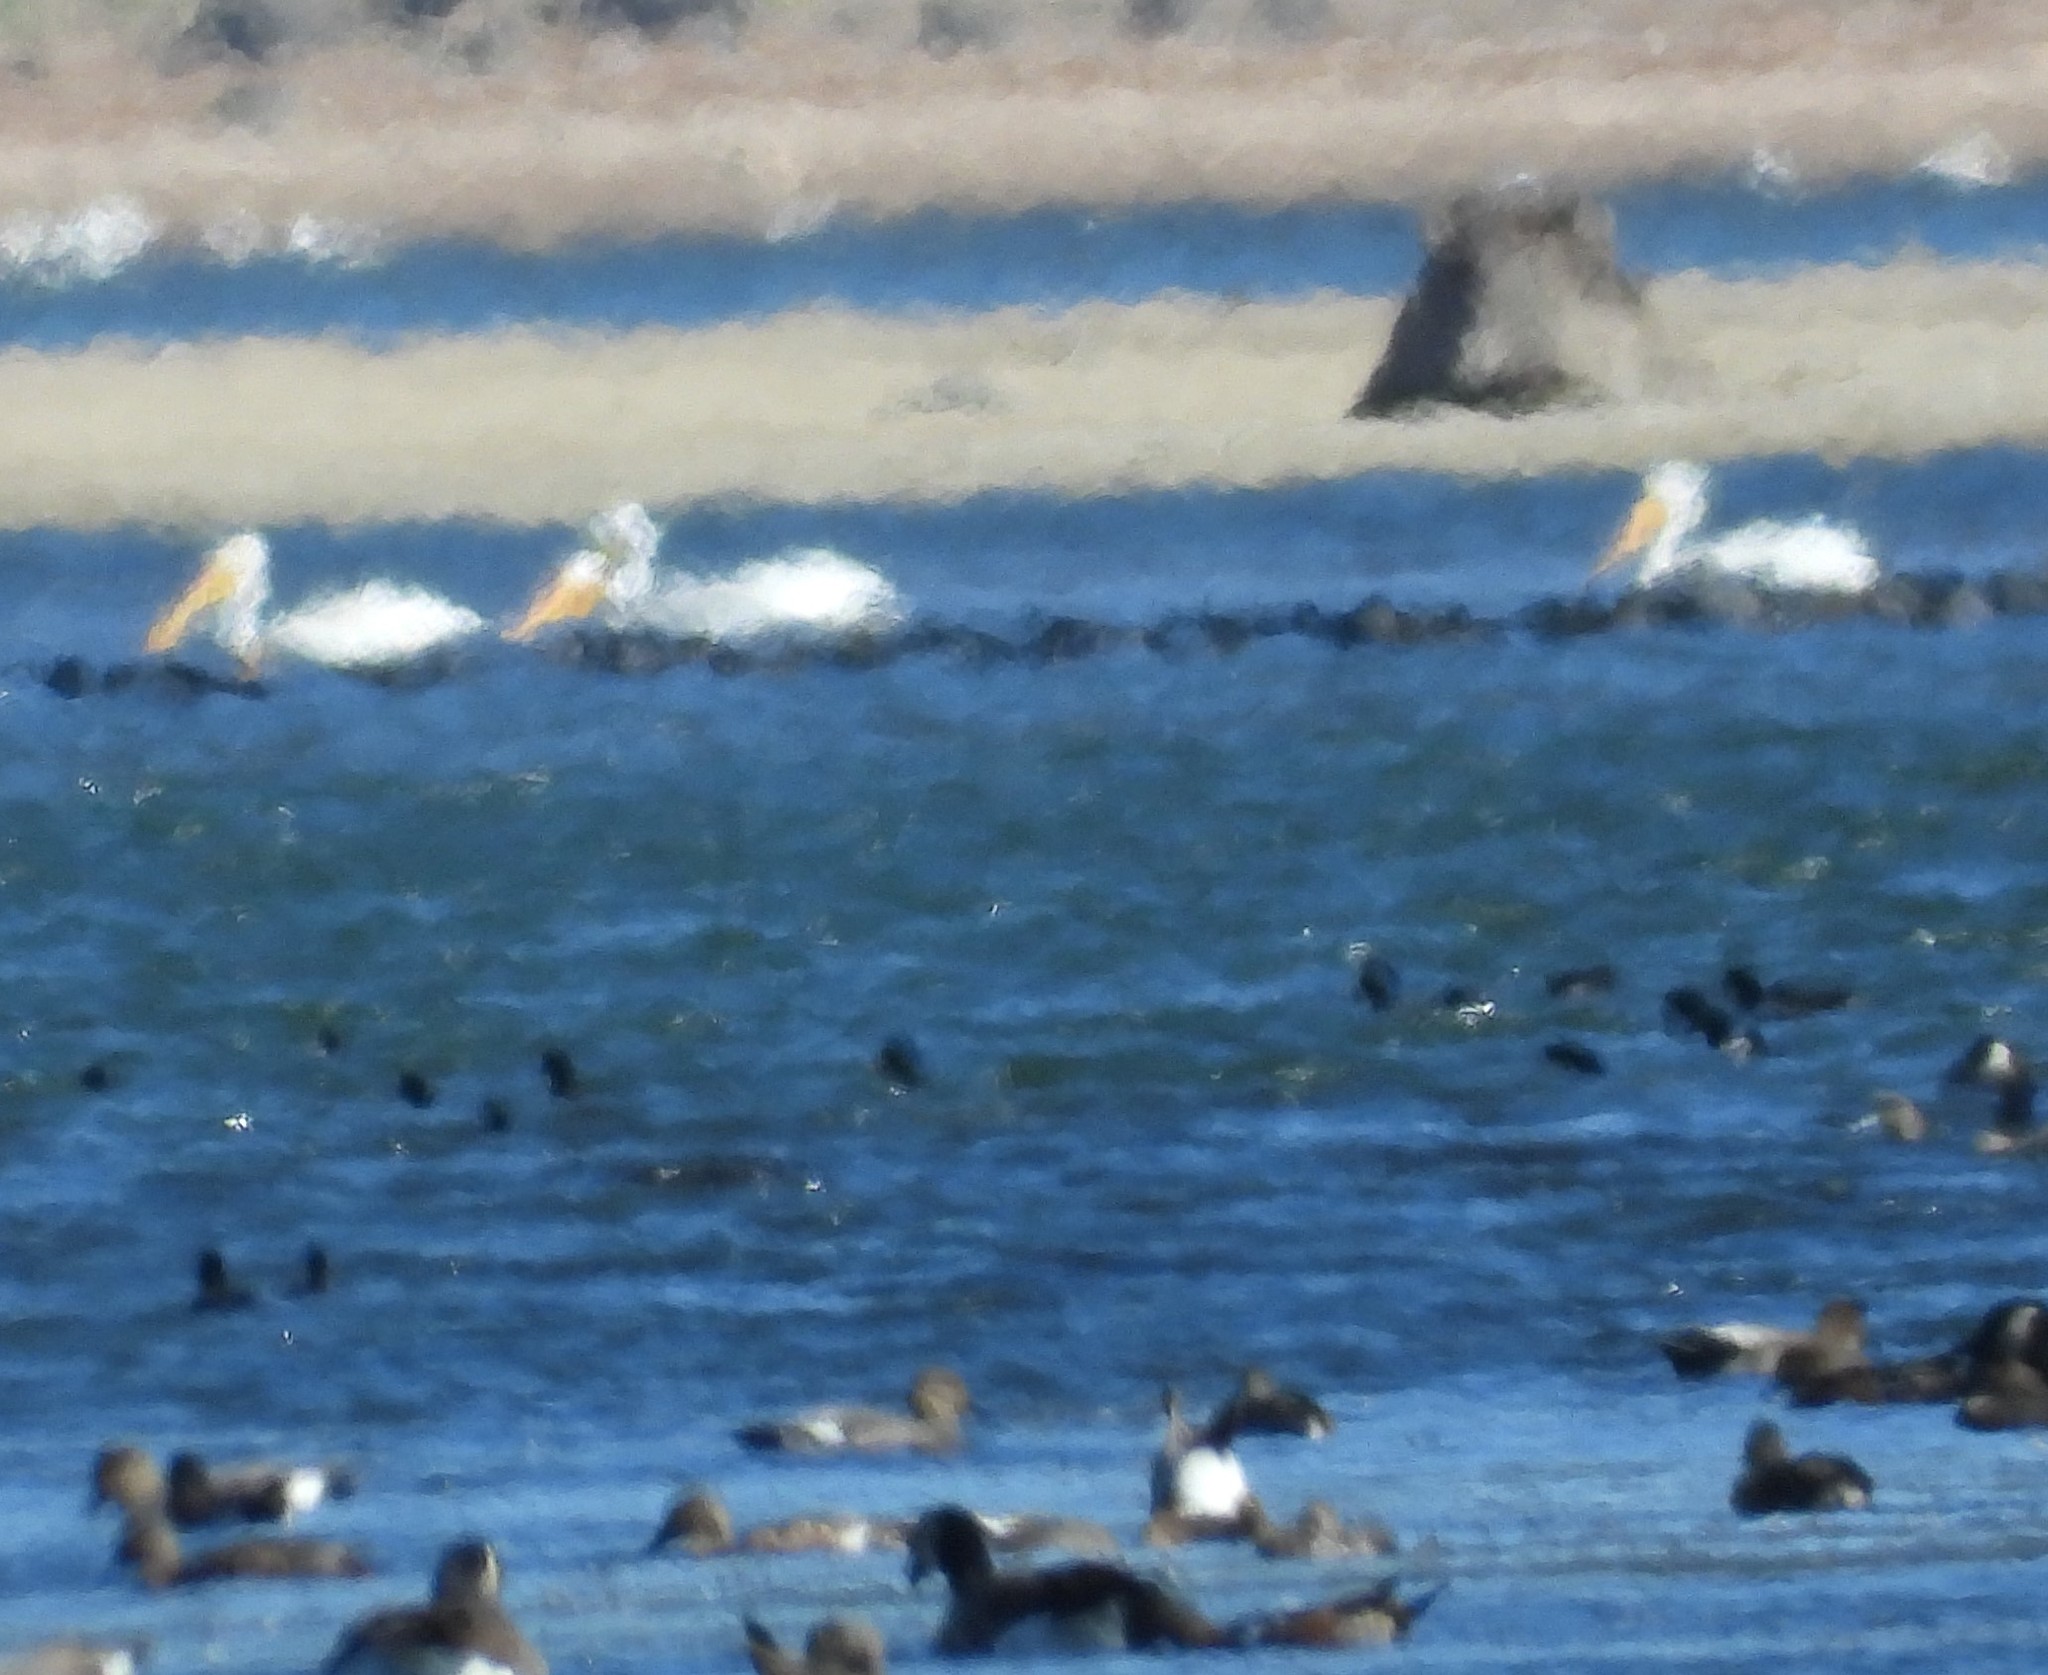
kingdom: Animalia
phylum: Chordata
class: Aves
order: Pelecaniformes
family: Pelecanidae
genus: Pelecanus
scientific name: Pelecanus erythrorhynchos
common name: American white pelican
